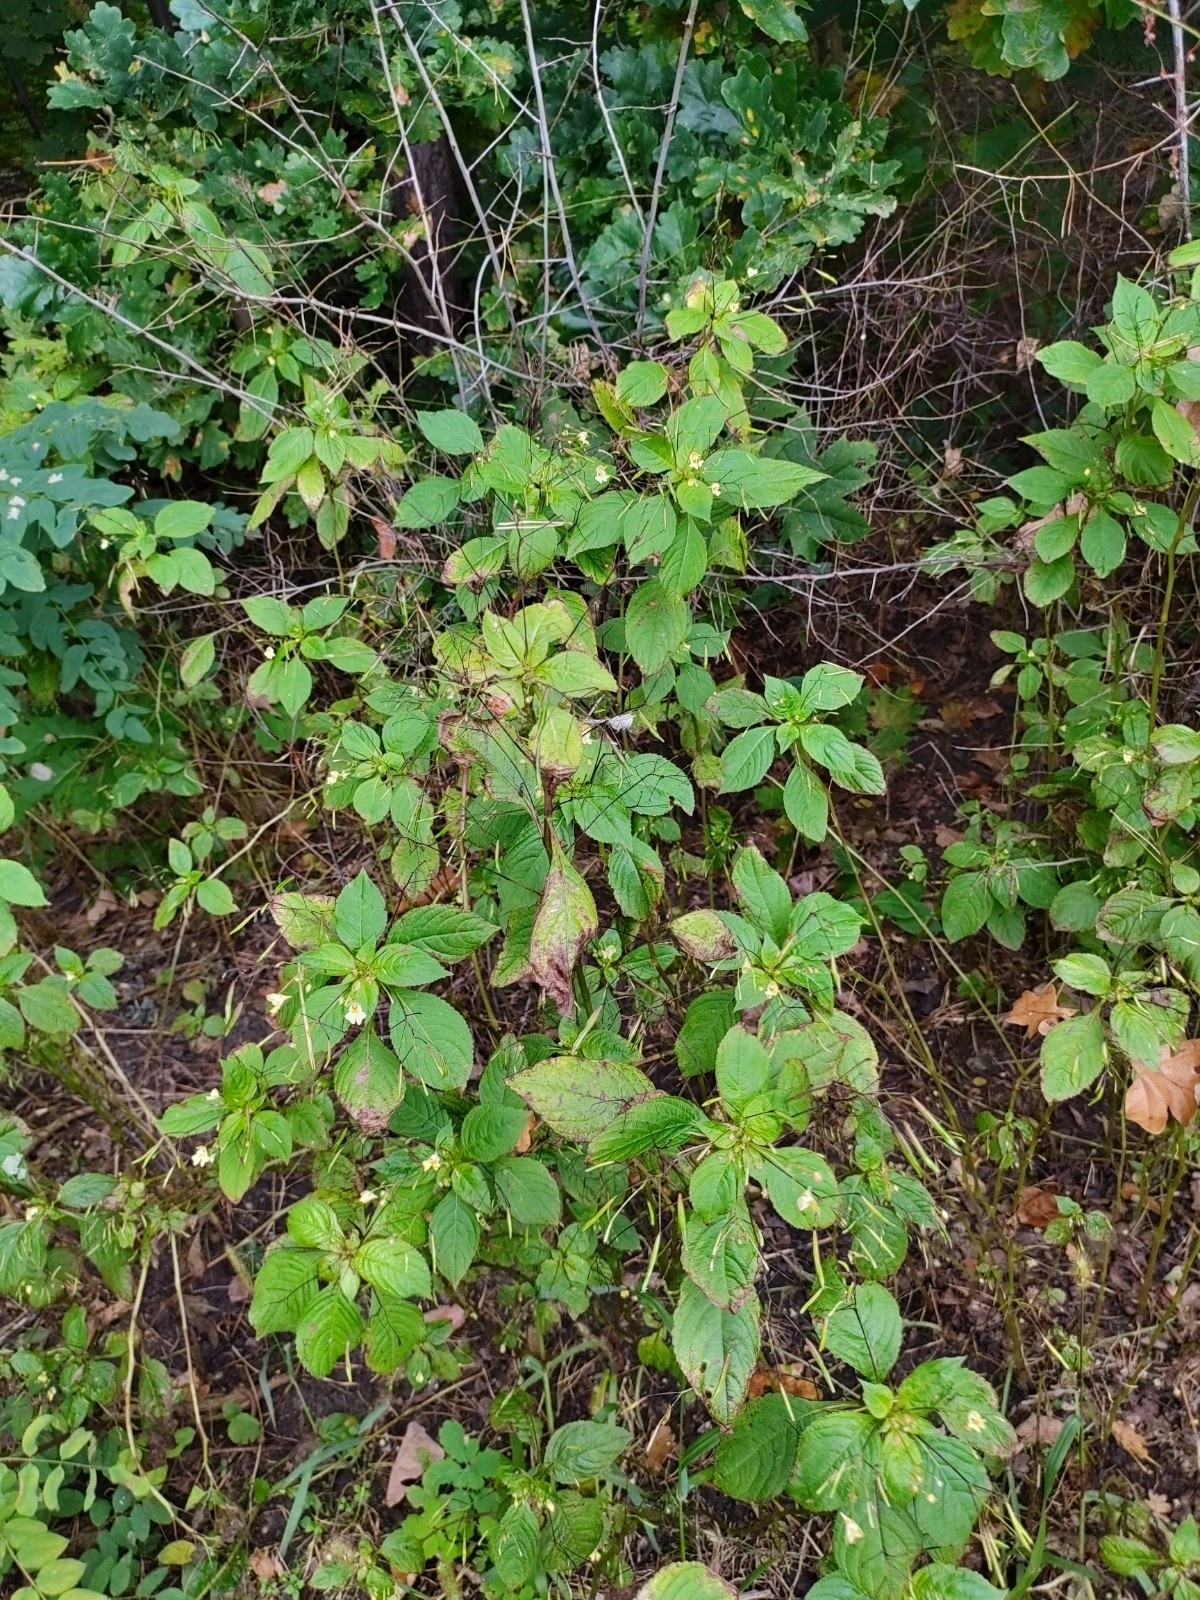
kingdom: Plantae
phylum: Tracheophyta
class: Magnoliopsida
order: Ericales
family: Balsaminaceae
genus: Impatiens
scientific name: Impatiens parviflora
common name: Small balsam
